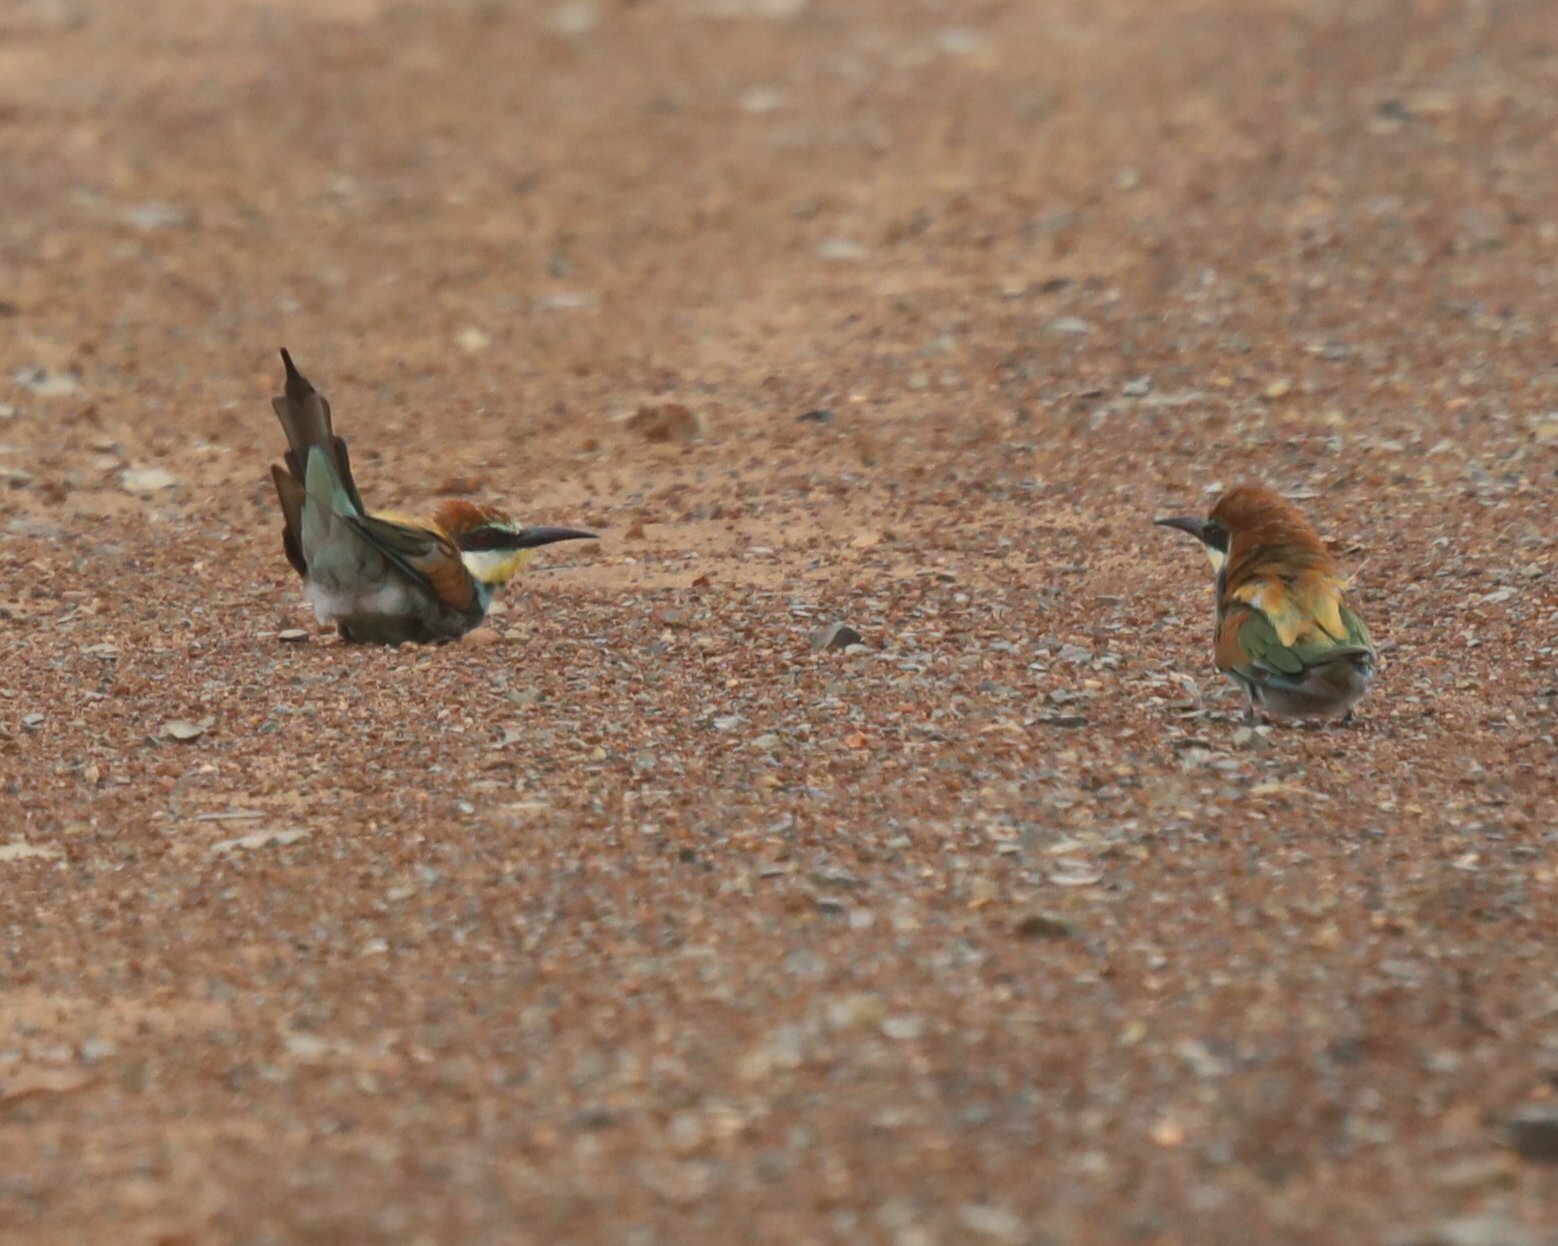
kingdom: Animalia
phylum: Chordata
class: Aves
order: Coraciiformes
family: Meropidae
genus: Merops
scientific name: Merops apiaster
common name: European bee-eater
